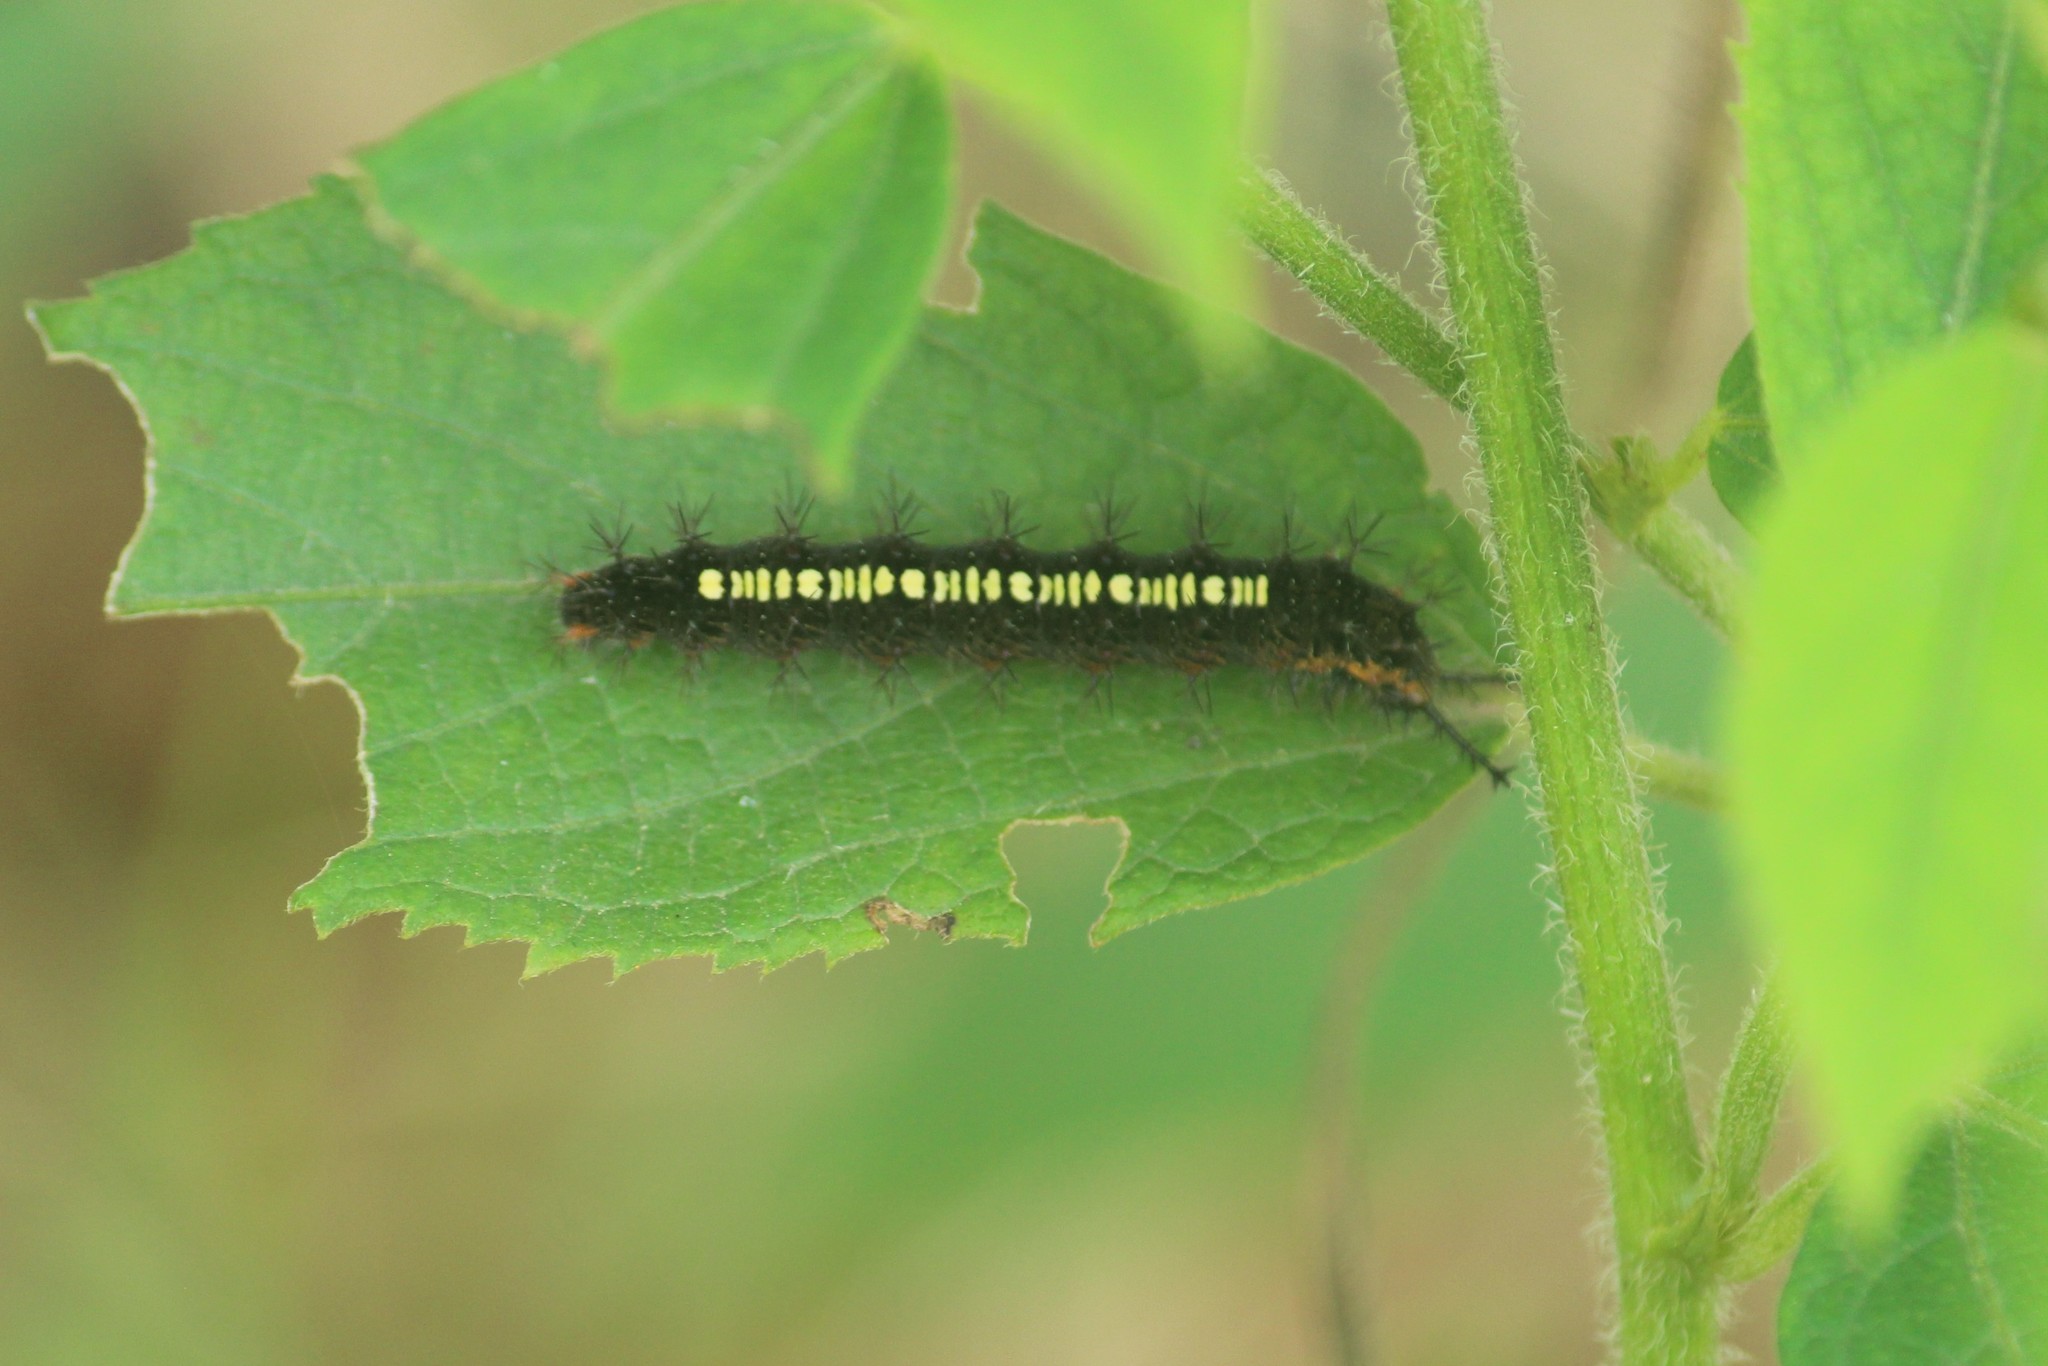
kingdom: Animalia
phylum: Arthropoda
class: Insecta
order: Lepidoptera
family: Nymphalidae
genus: Ariadne
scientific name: Ariadne ariadne
